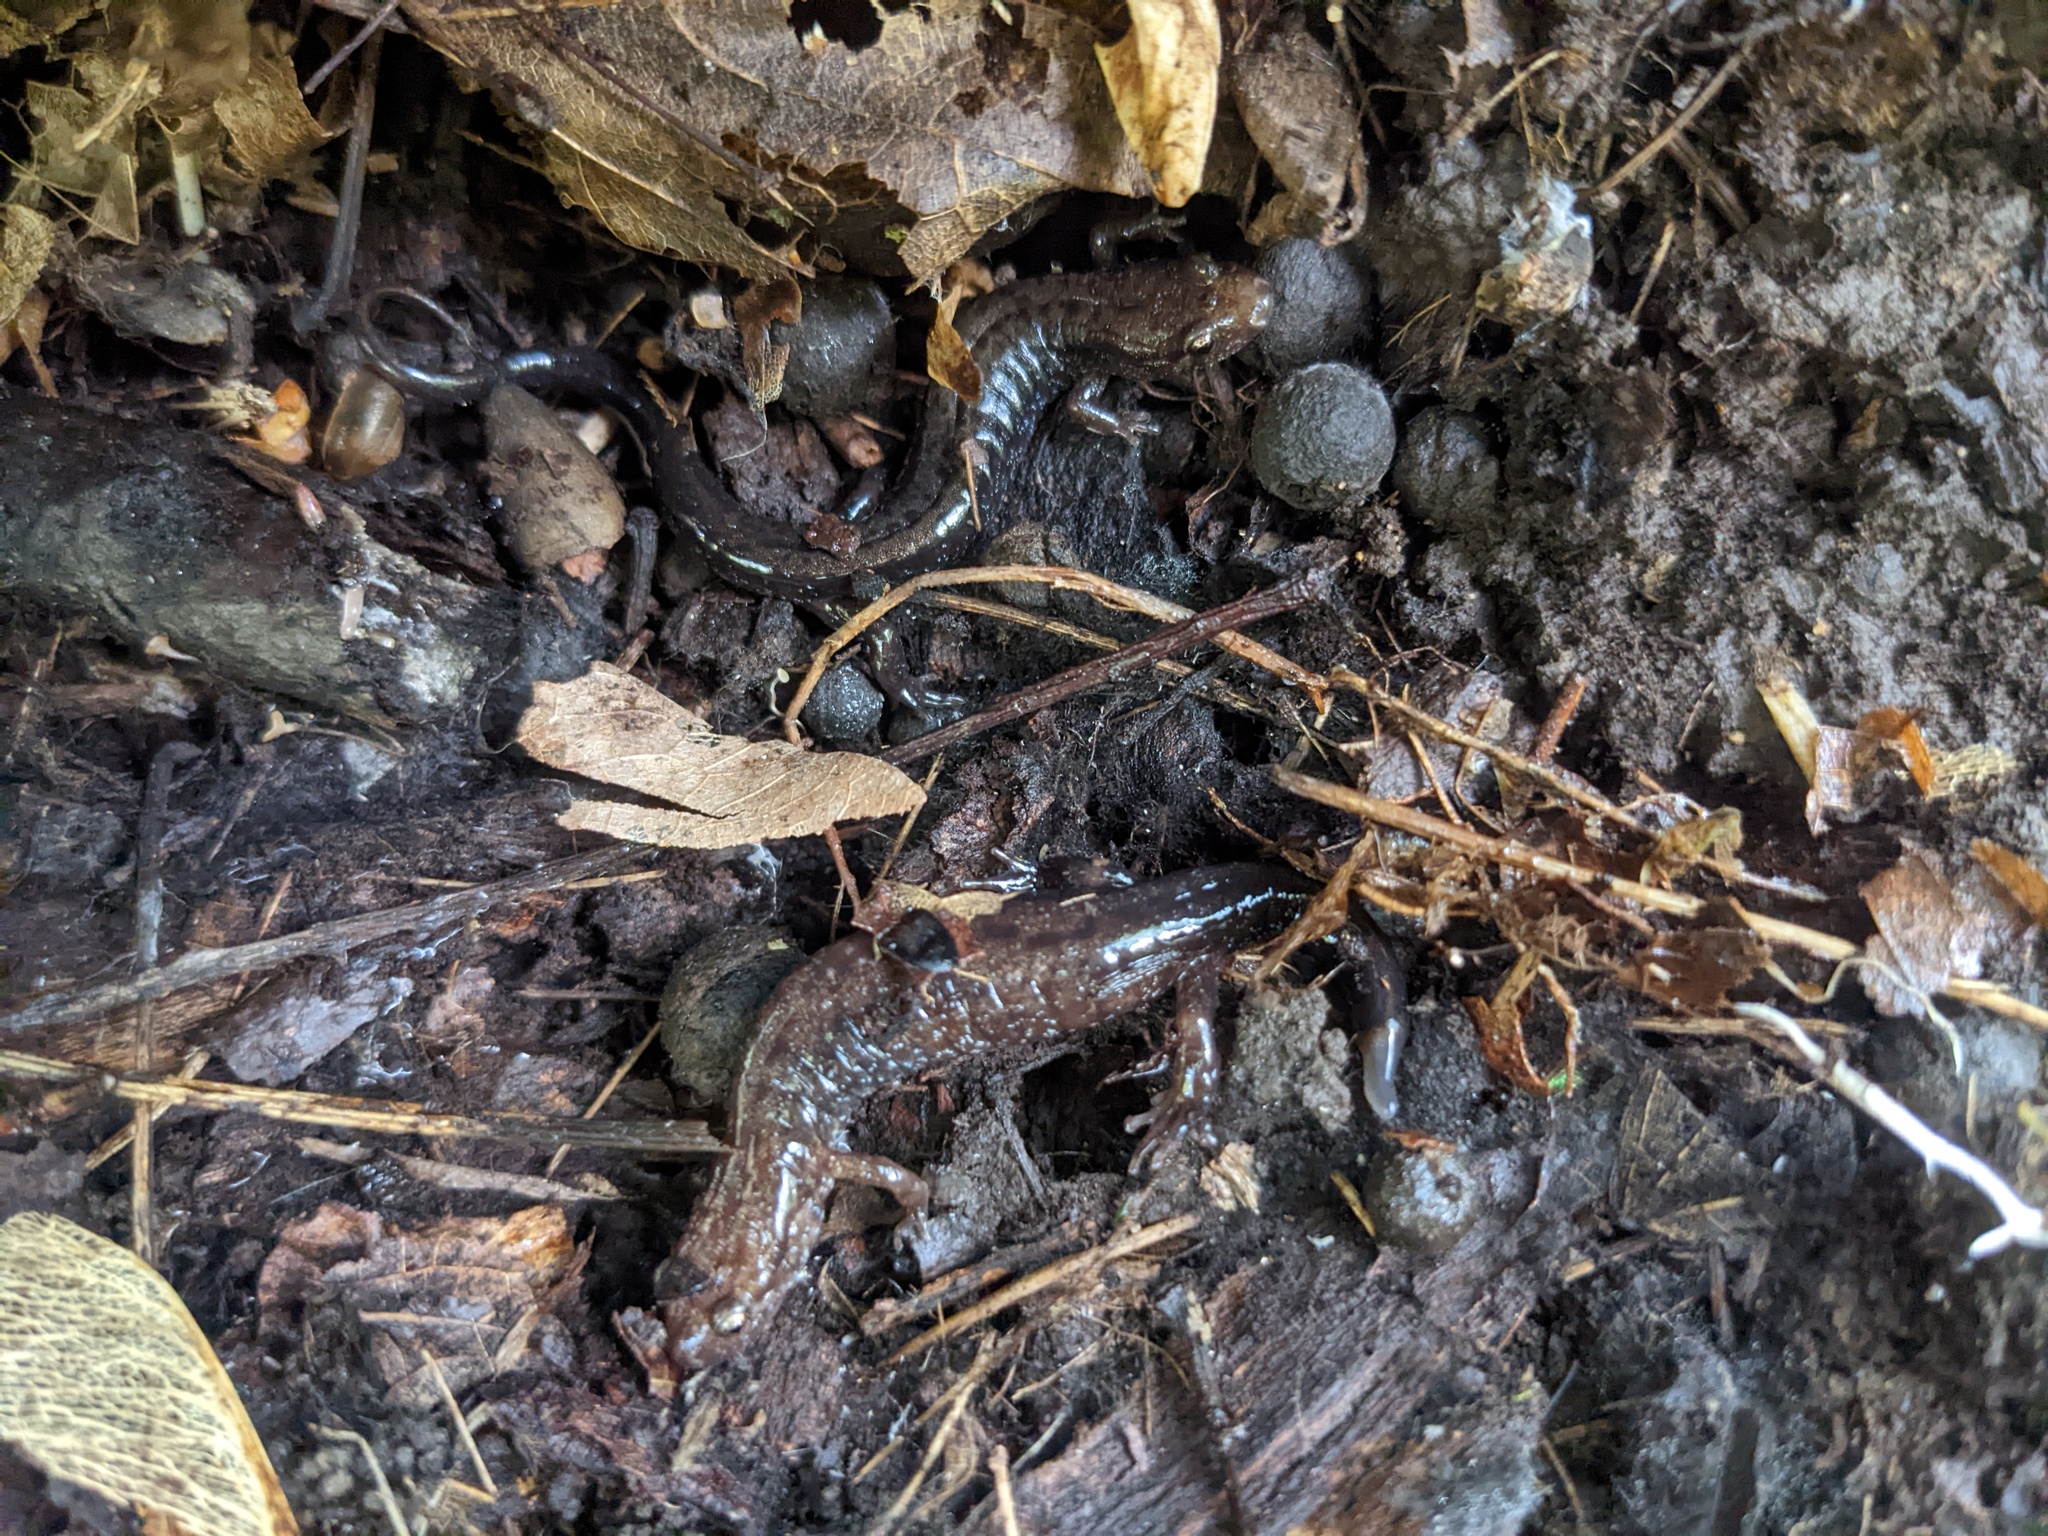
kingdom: Animalia
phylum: Chordata
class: Amphibia
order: Caudata
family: Plethodontidae
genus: Desmognathus
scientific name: Desmognathus ochrophaeus
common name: Allegheny mountain dusky salamander
